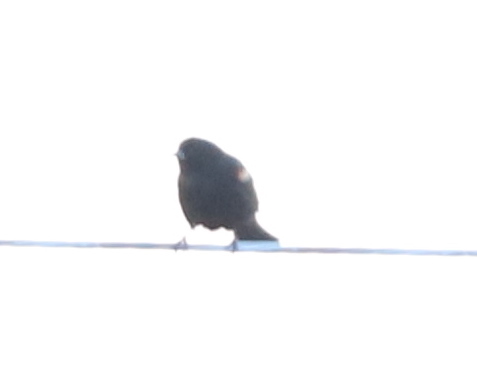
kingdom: Animalia
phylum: Chordata
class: Aves
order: Passeriformes
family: Icteridae
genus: Agelaius
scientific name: Agelaius phoeniceus
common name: Red-winged blackbird
